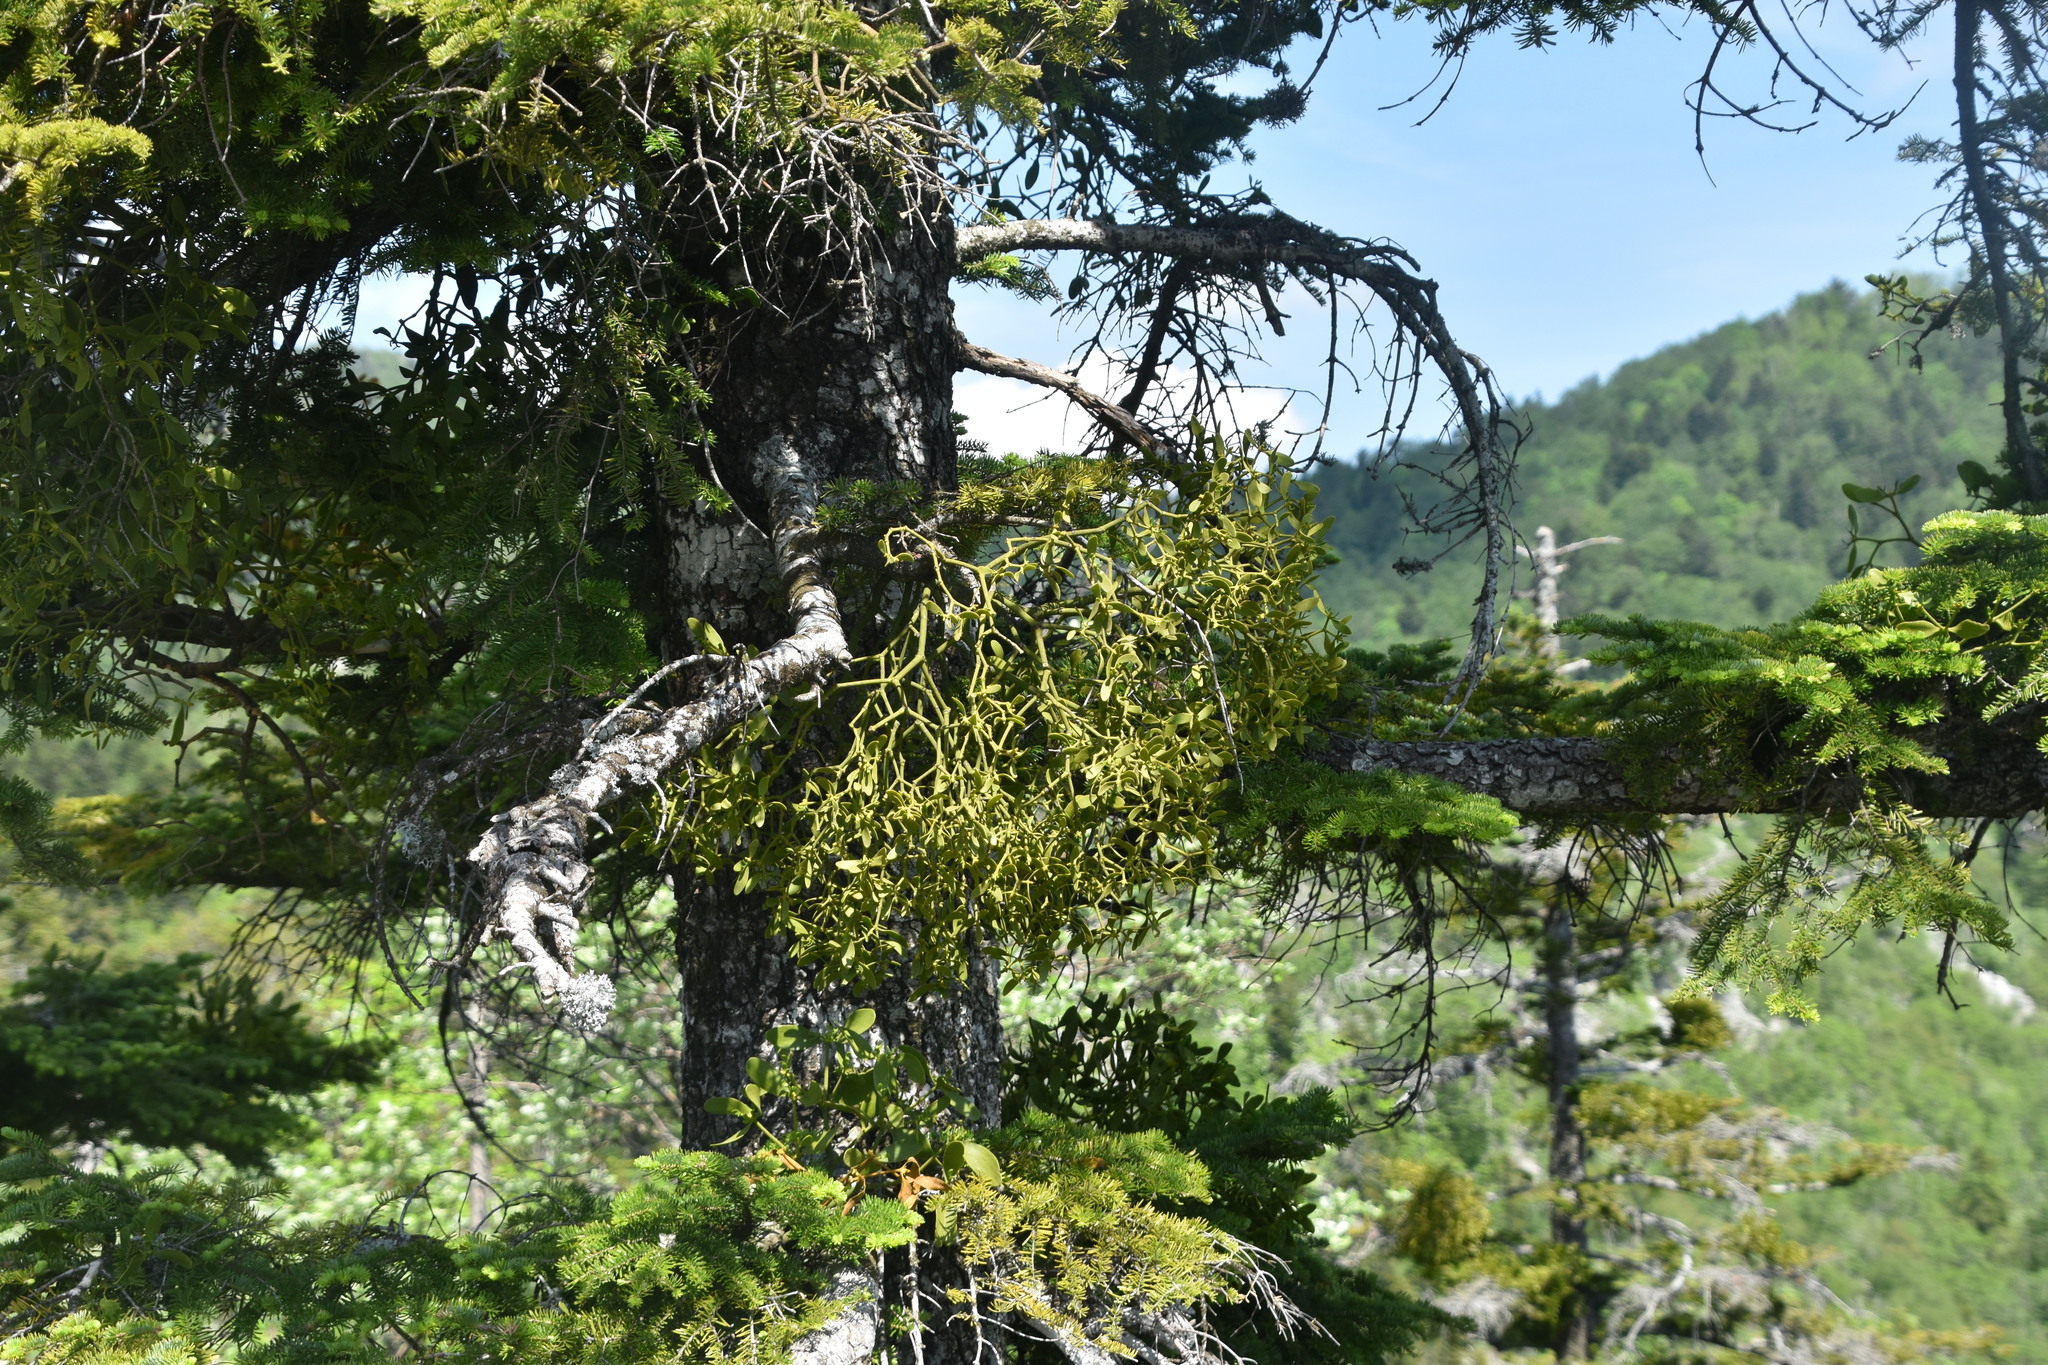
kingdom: Plantae
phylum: Tracheophyta
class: Magnoliopsida
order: Santalales
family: Viscaceae
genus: Viscum
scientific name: Viscum album
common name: Mistletoe
